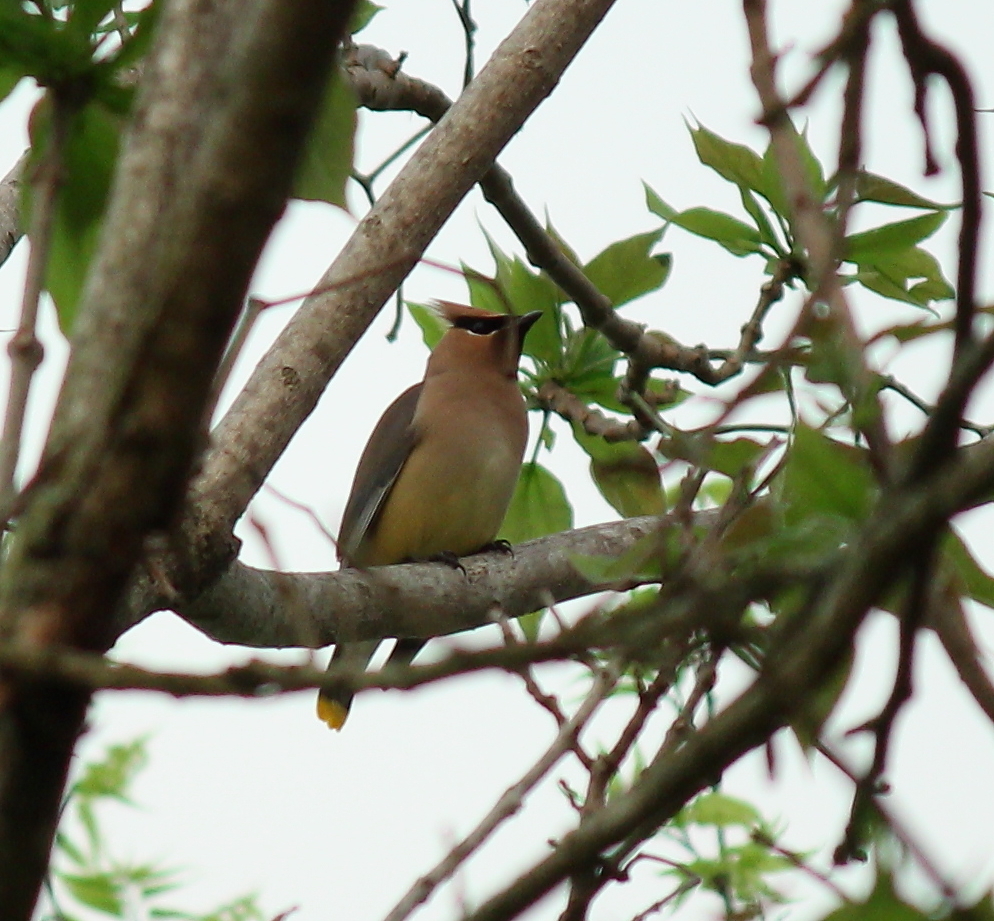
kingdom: Animalia
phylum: Chordata
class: Aves
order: Passeriformes
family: Bombycillidae
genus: Bombycilla
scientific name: Bombycilla cedrorum
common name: Cedar waxwing
